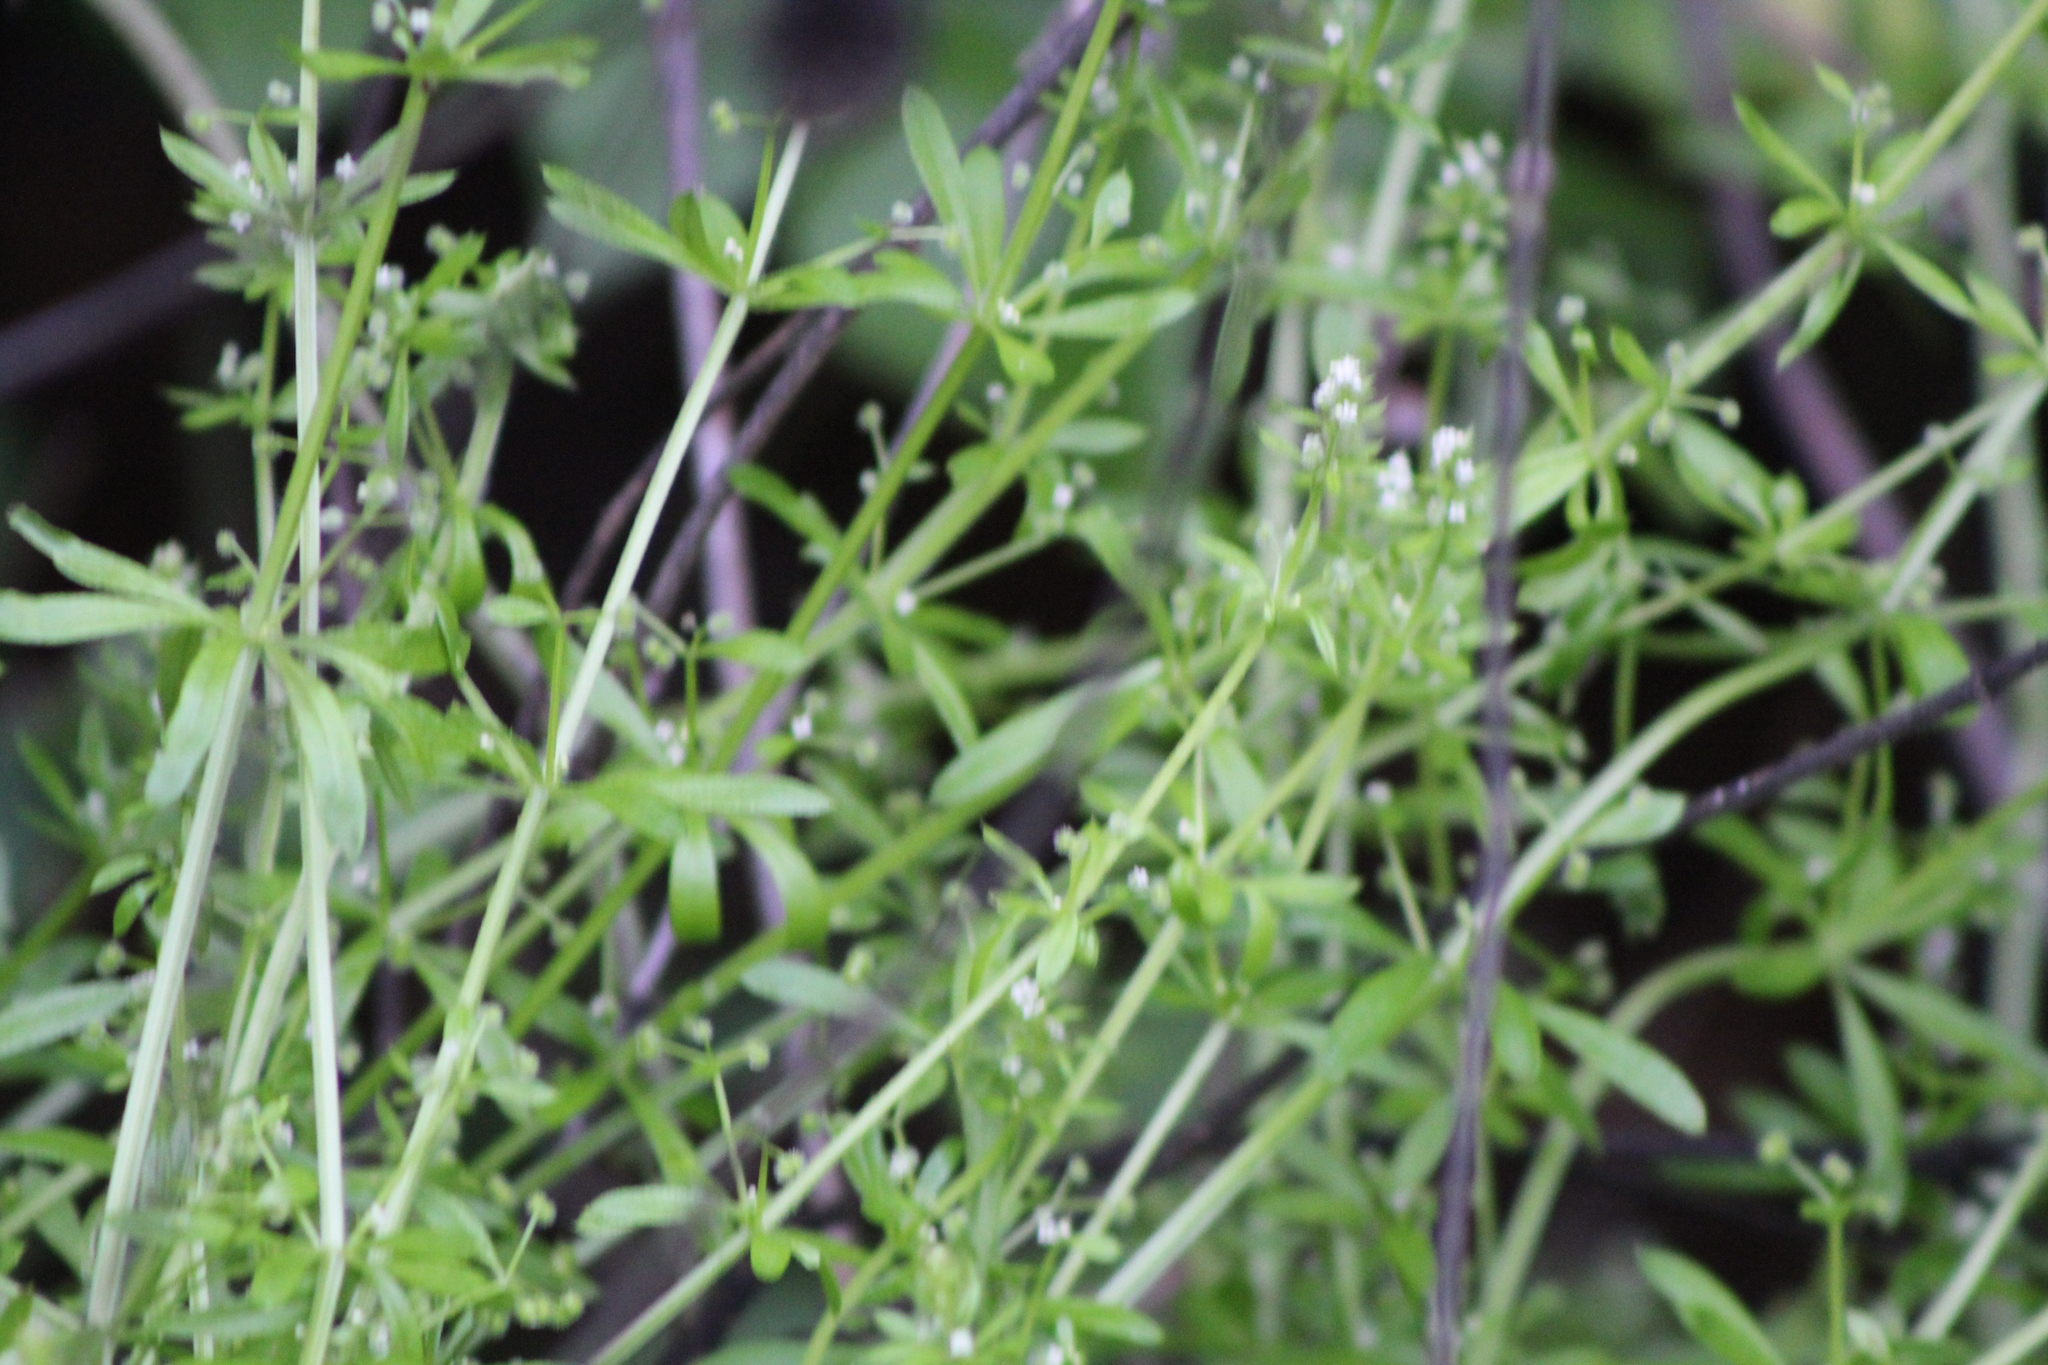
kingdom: Plantae
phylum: Tracheophyta
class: Magnoliopsida
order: Gentianales
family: Rubiaceae
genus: Galium
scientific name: Galium aparine
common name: Cleavers
